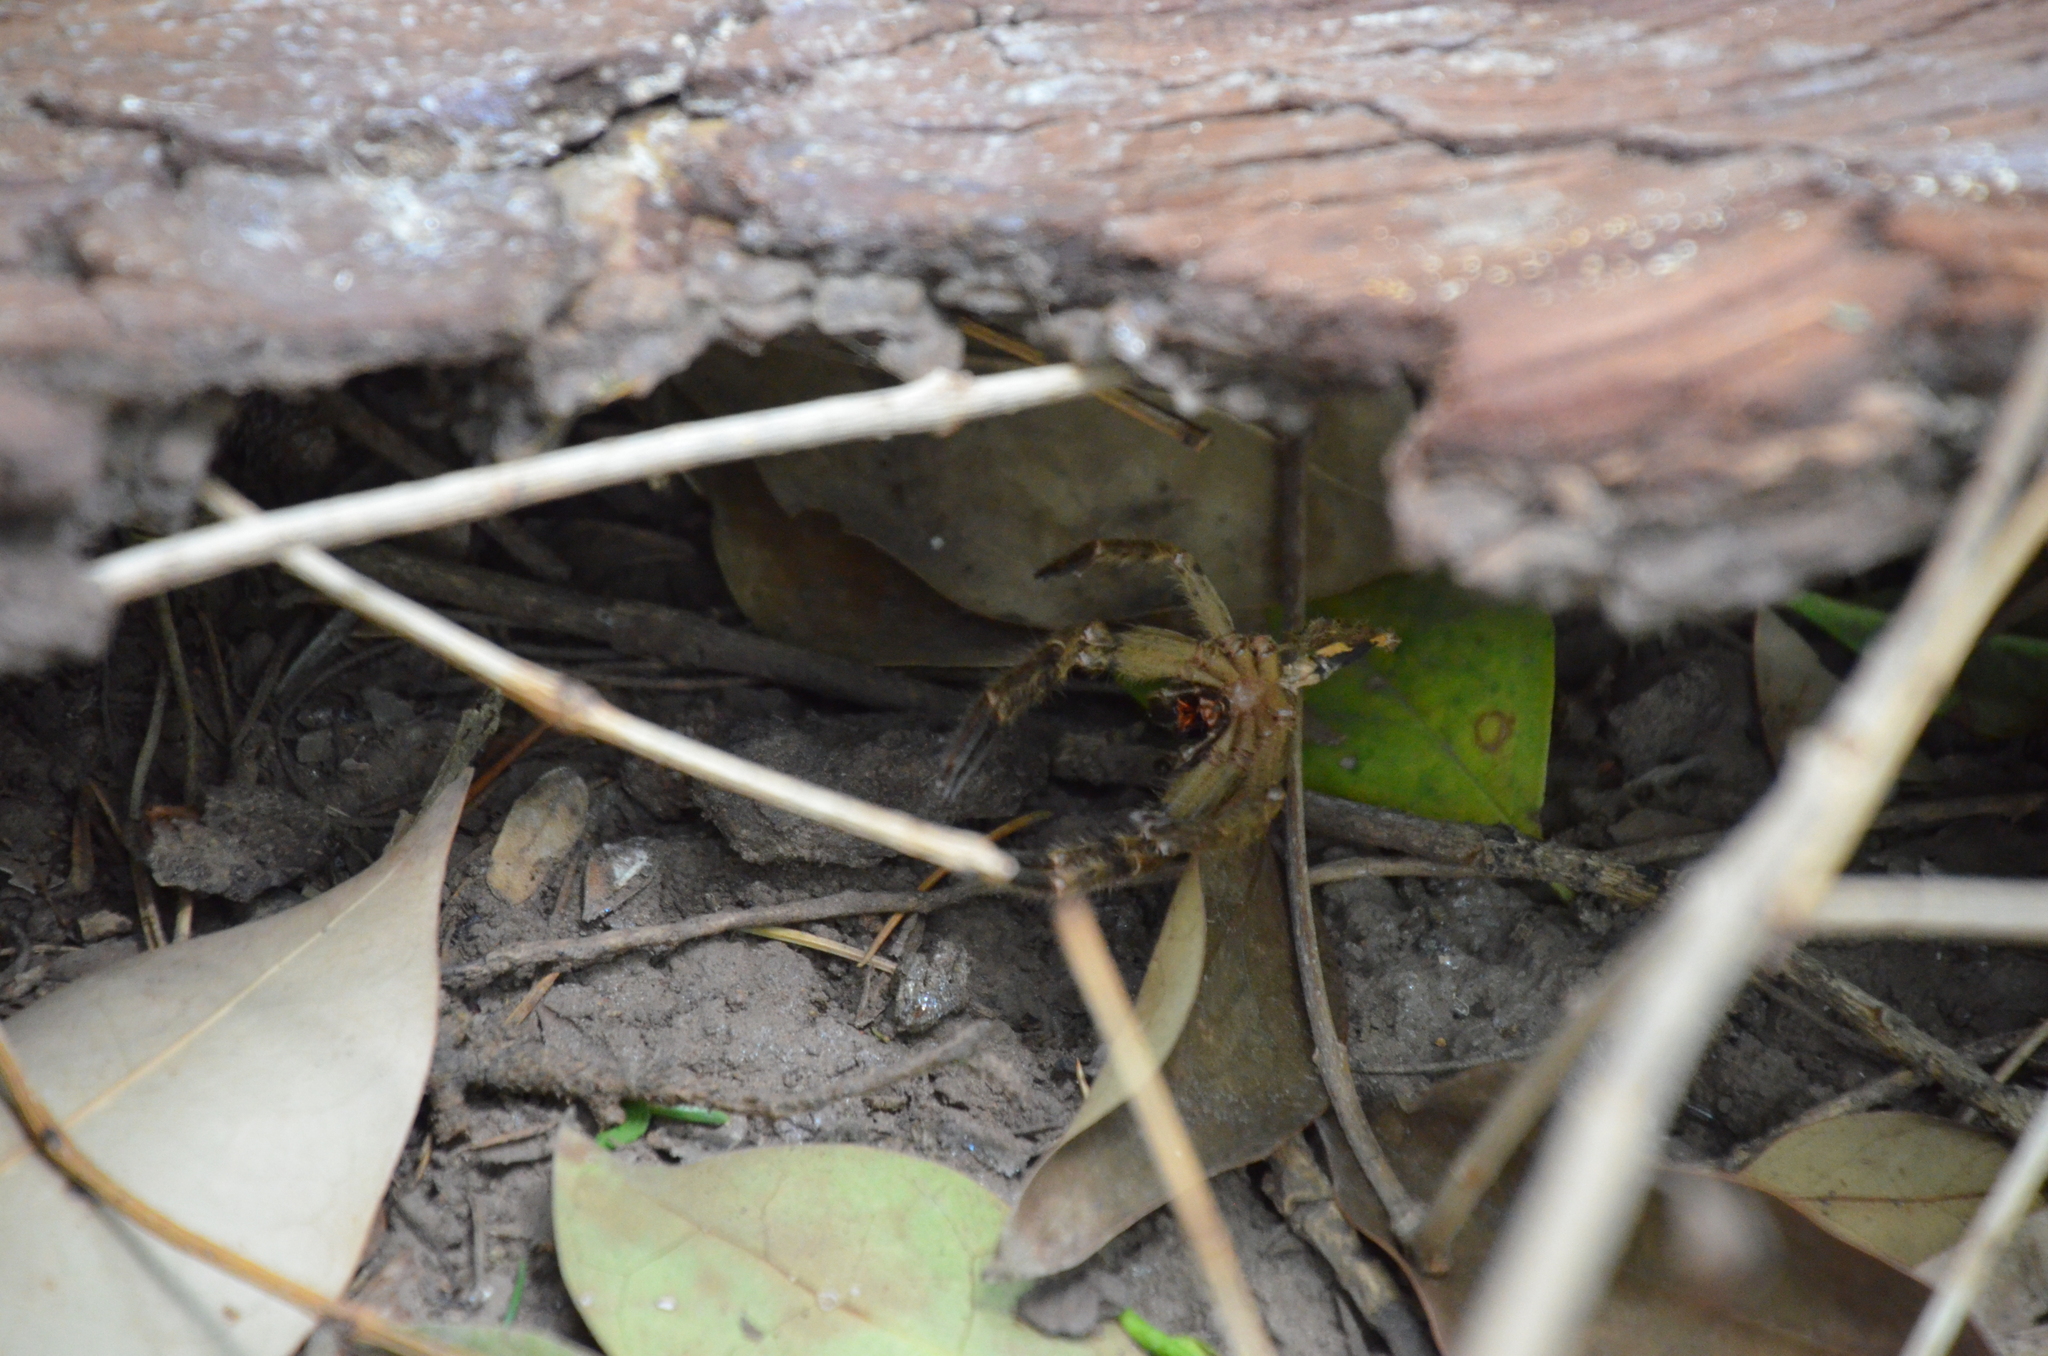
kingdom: Animalia
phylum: Arthropoda
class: Arachnida
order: Araneae
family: Sparassidae
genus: Polybetes
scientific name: Polybetes pythagoricus
